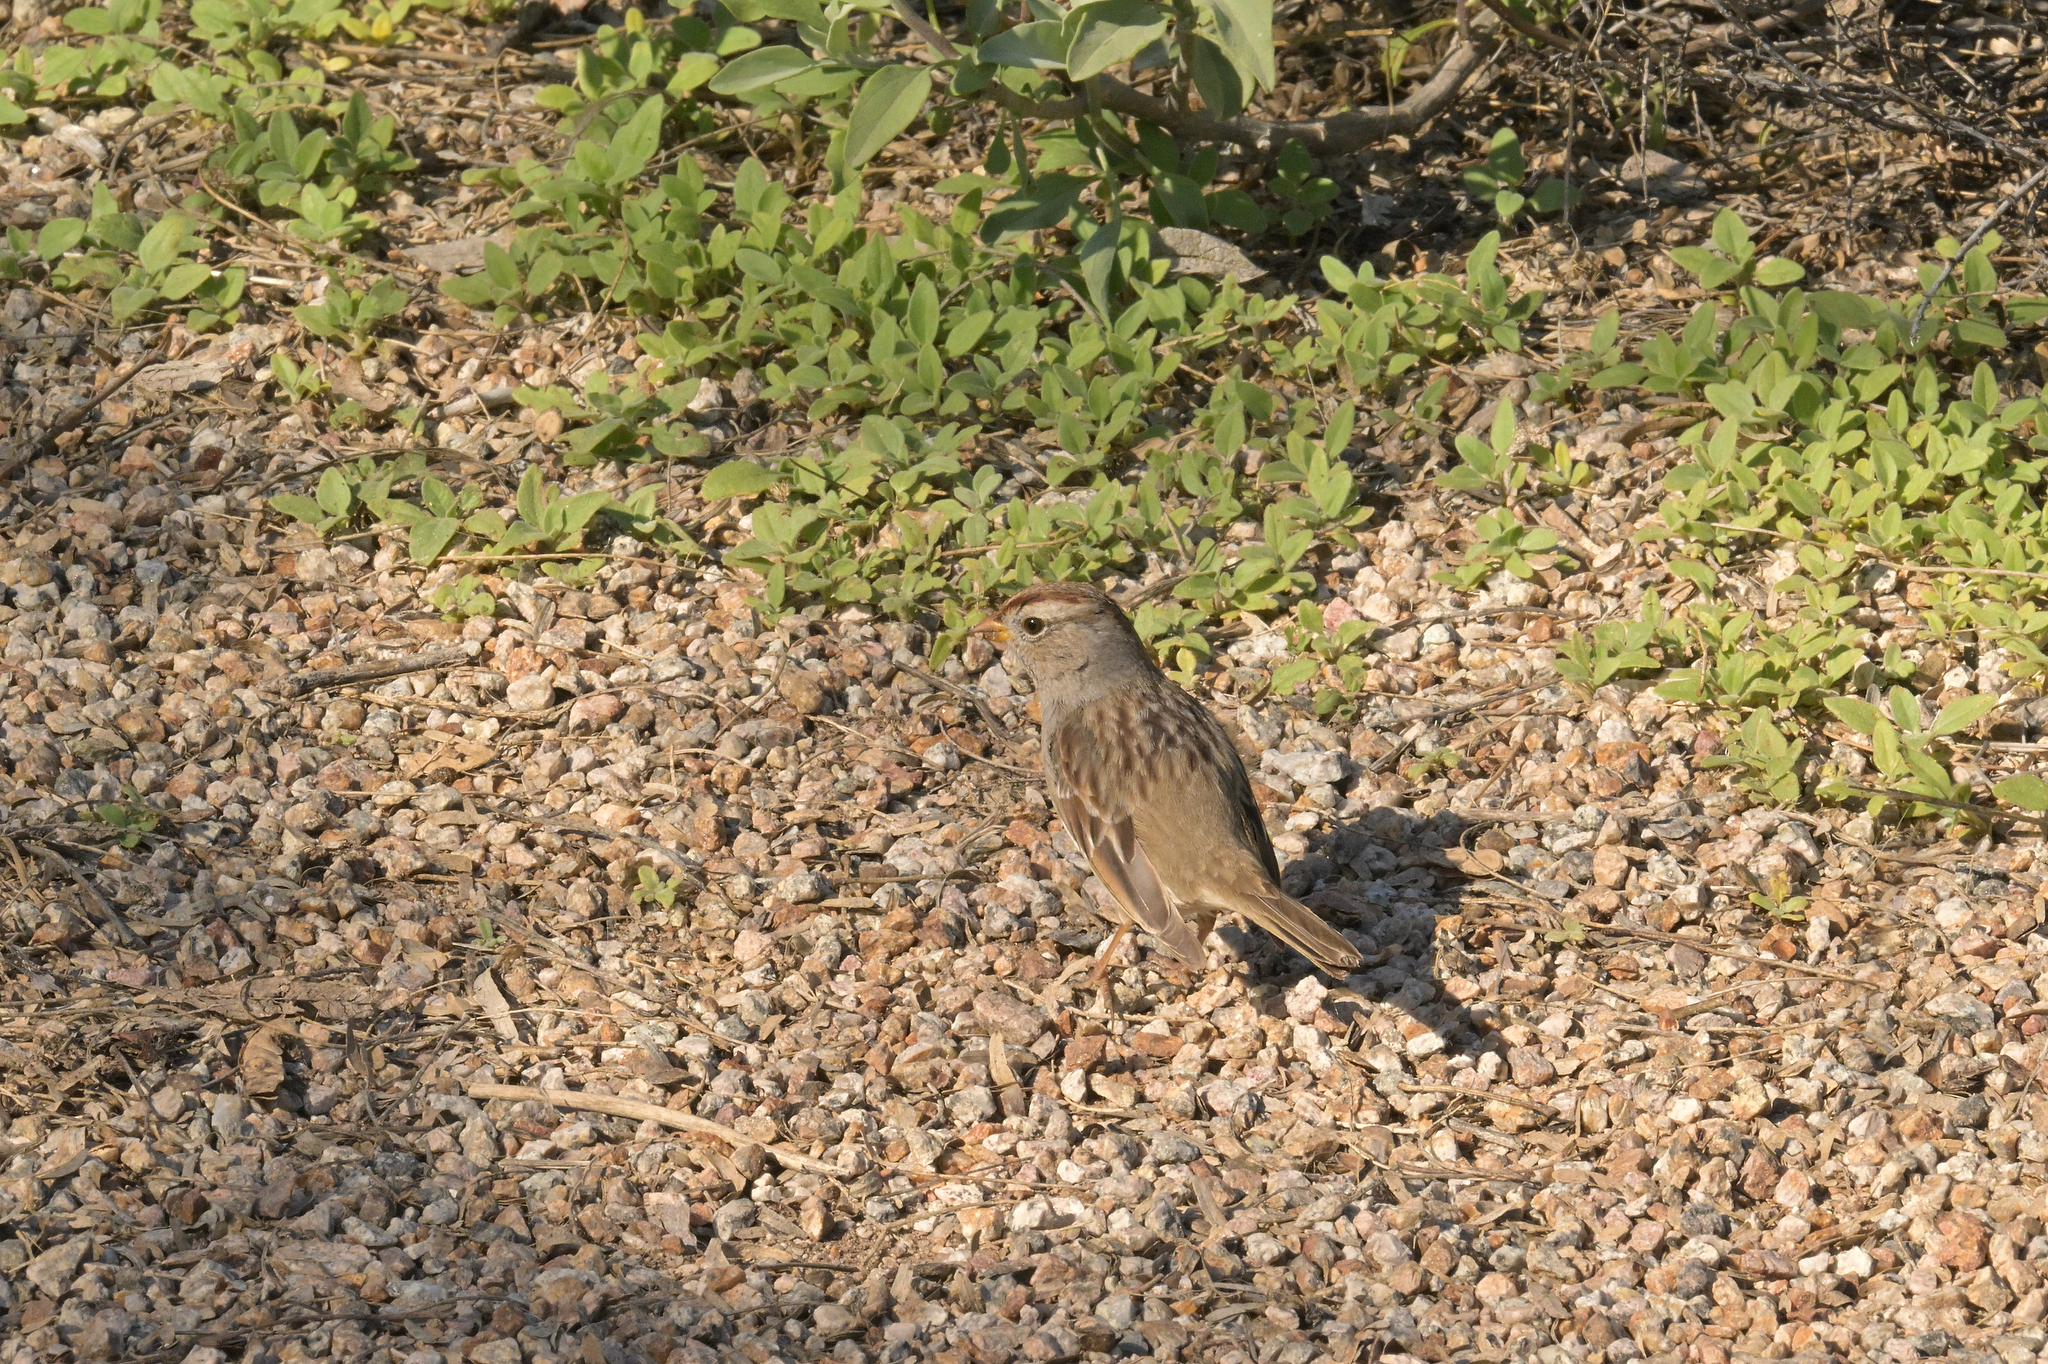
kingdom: Animalia
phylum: Chordata
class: Aves
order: Passeriformes
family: Passerellidae
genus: Zonotrichia
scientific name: Zonotrichia leucophrys
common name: White-crowned sparrow
